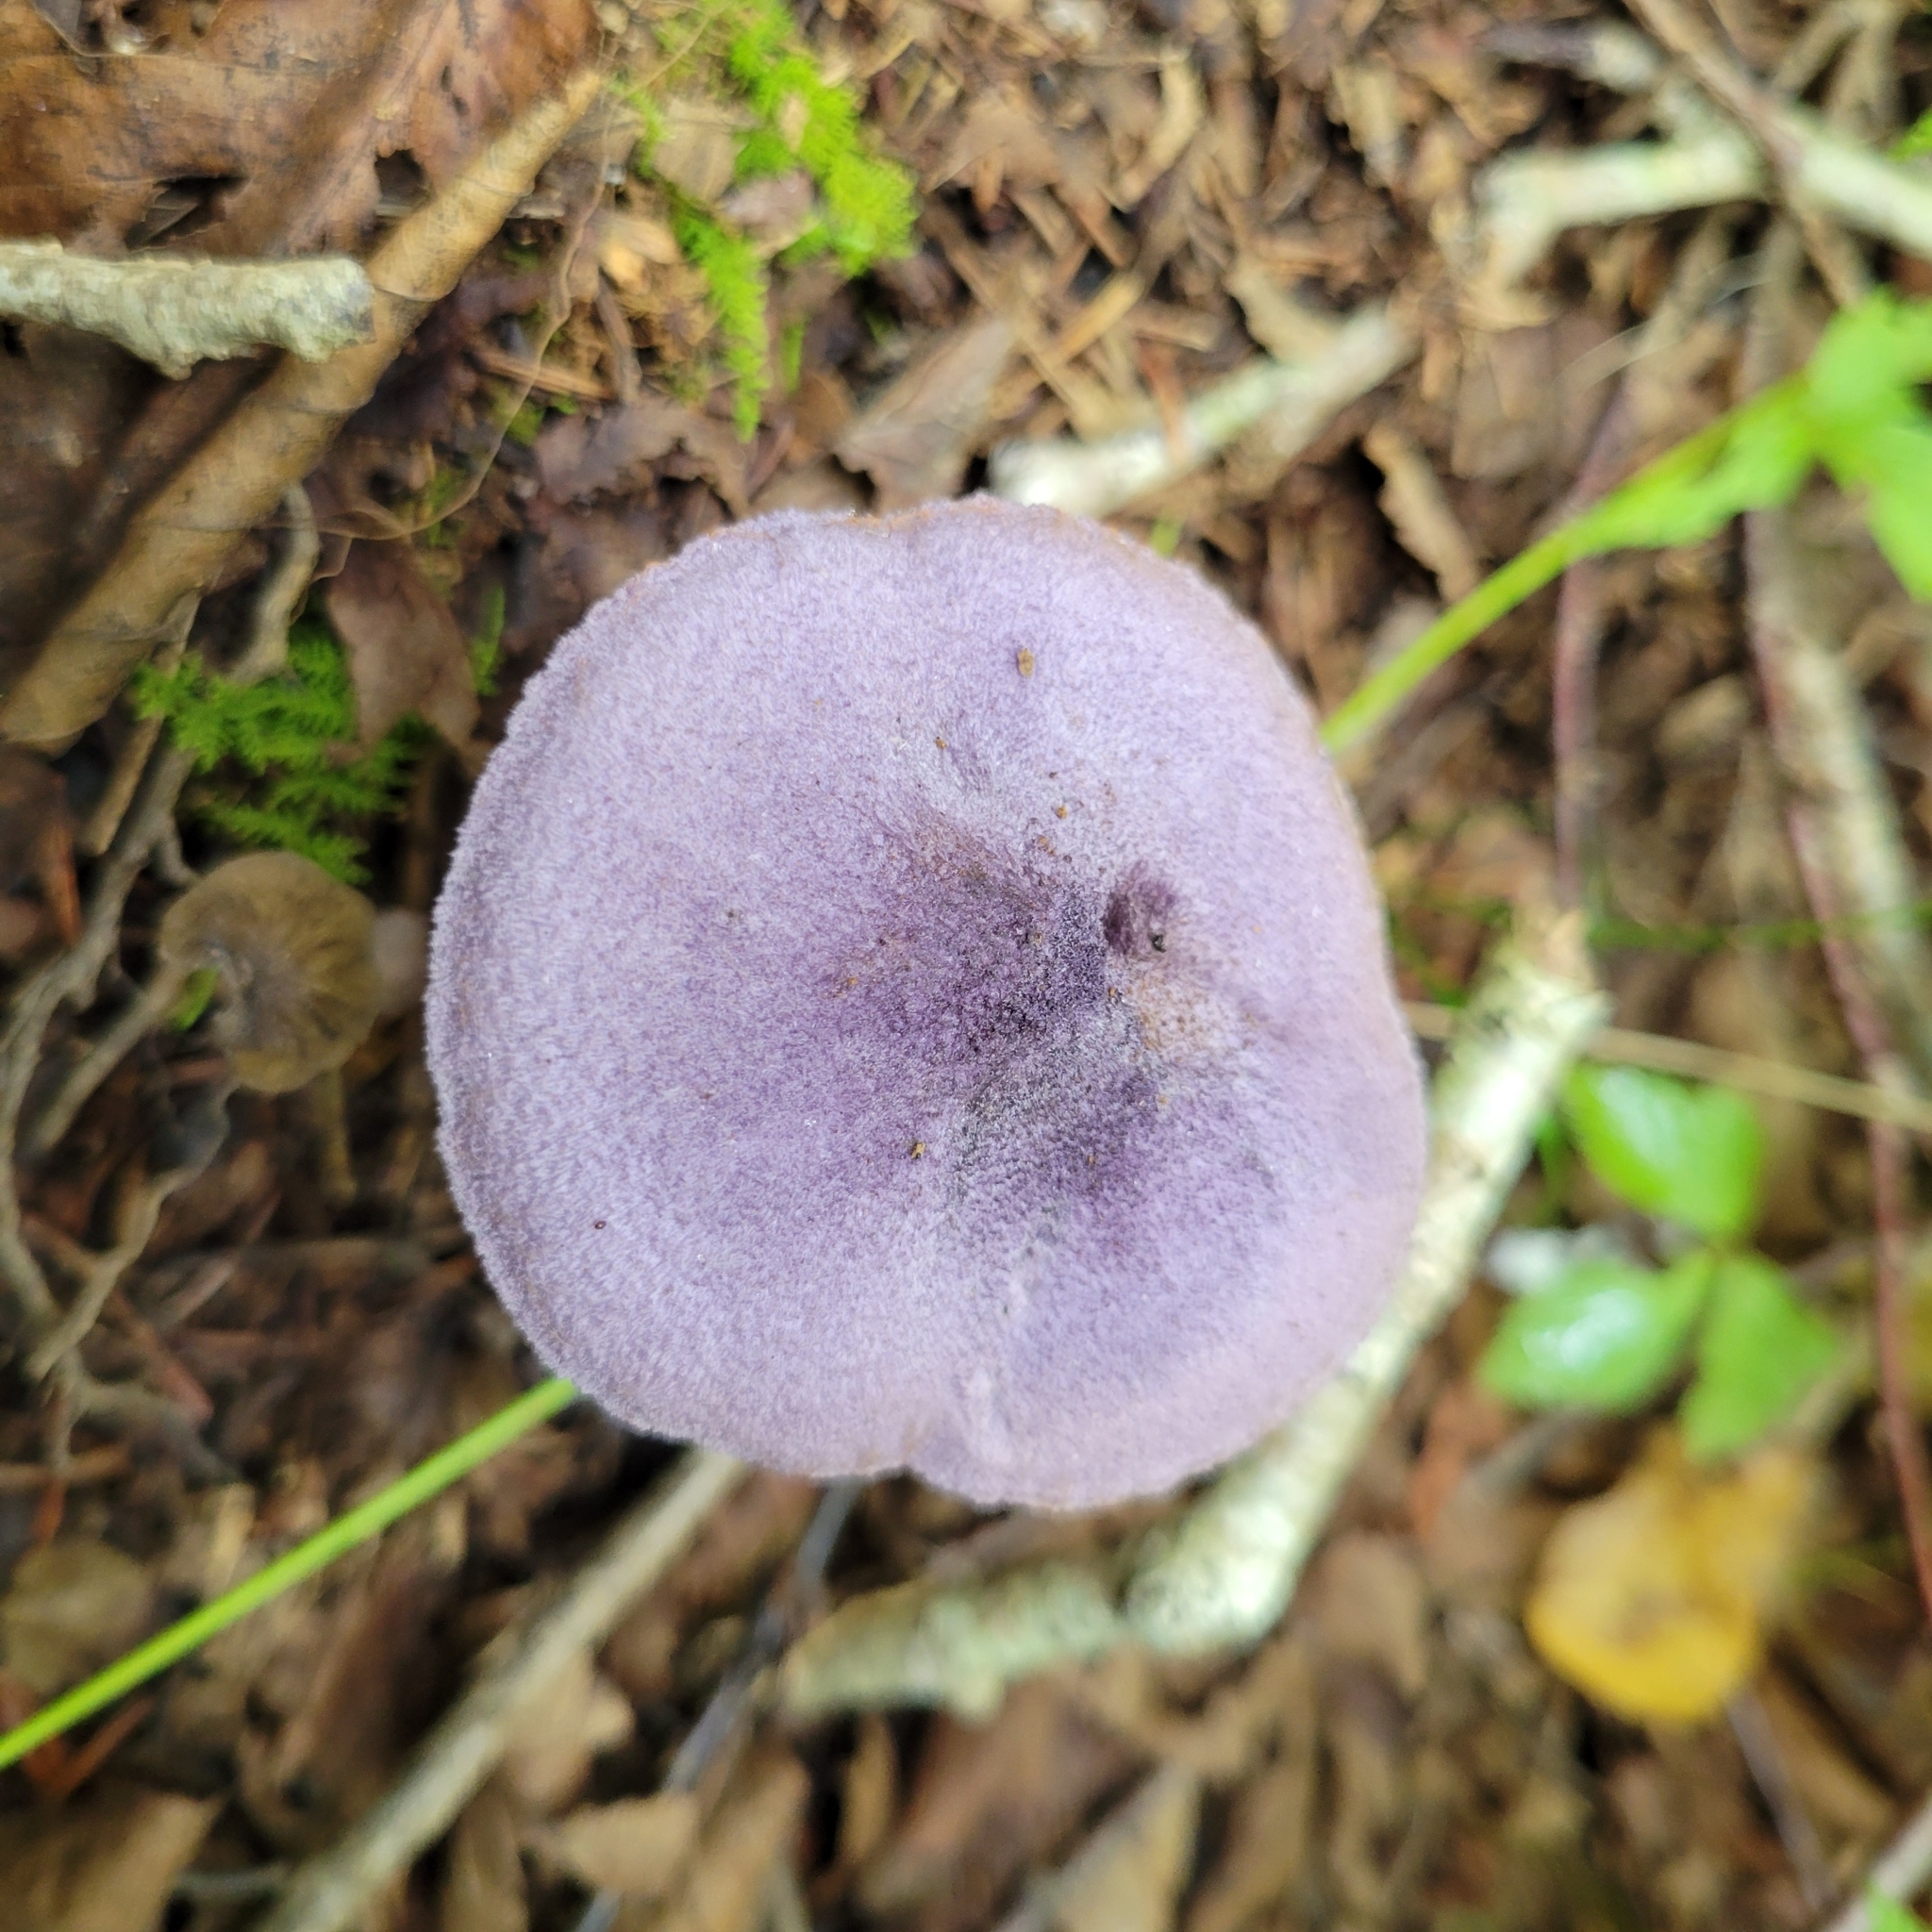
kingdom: Fungi
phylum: Basidiomycota
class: Agaricomycetes
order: Agaricales
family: Cortinariaceae
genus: Cortinarius
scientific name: Cortinarius violaceus
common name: Violet webcap
